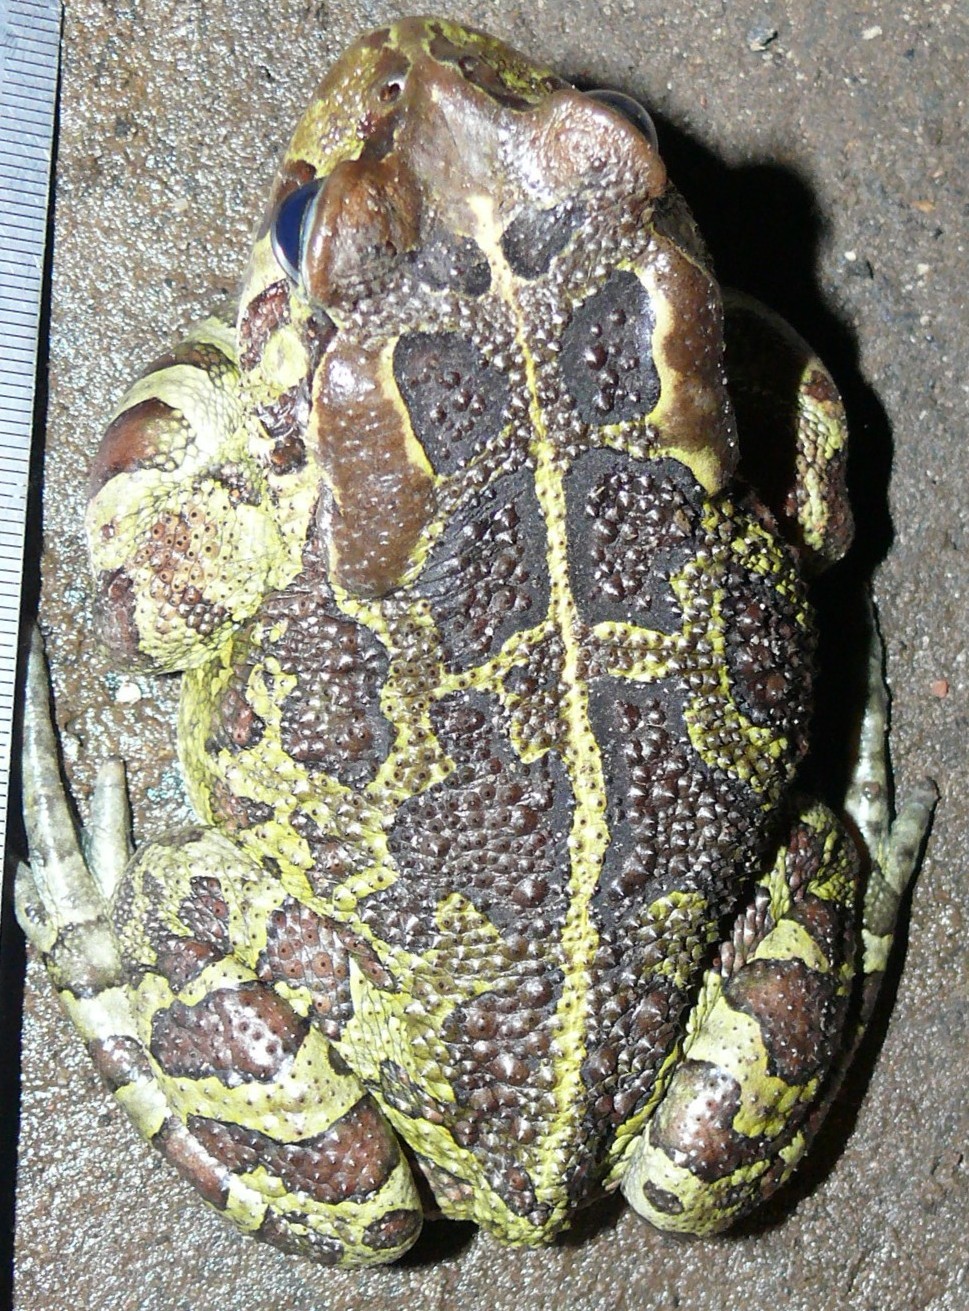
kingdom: Animalia
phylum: Chordata
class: Amphibia
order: Anura
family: Bufonidae
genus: Sclerophrys
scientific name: Sclerophrys pantherina
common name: Panther toad
